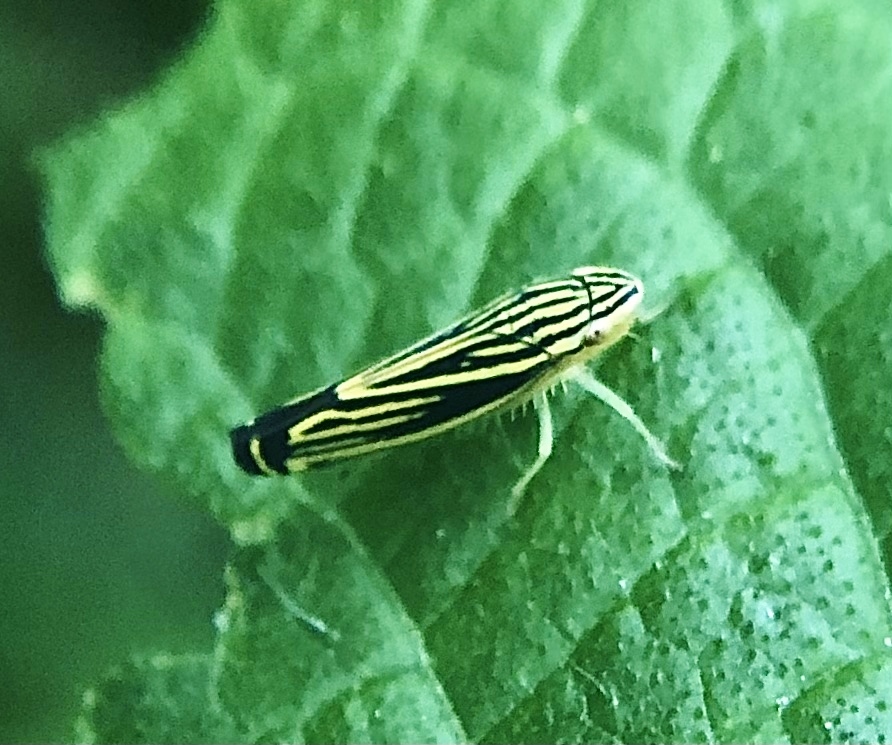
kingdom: Animalia
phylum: Arthropoda
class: Insecta
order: Hemiptera
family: Cicadellidae
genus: Sibovia
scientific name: Sibovia occatoria
